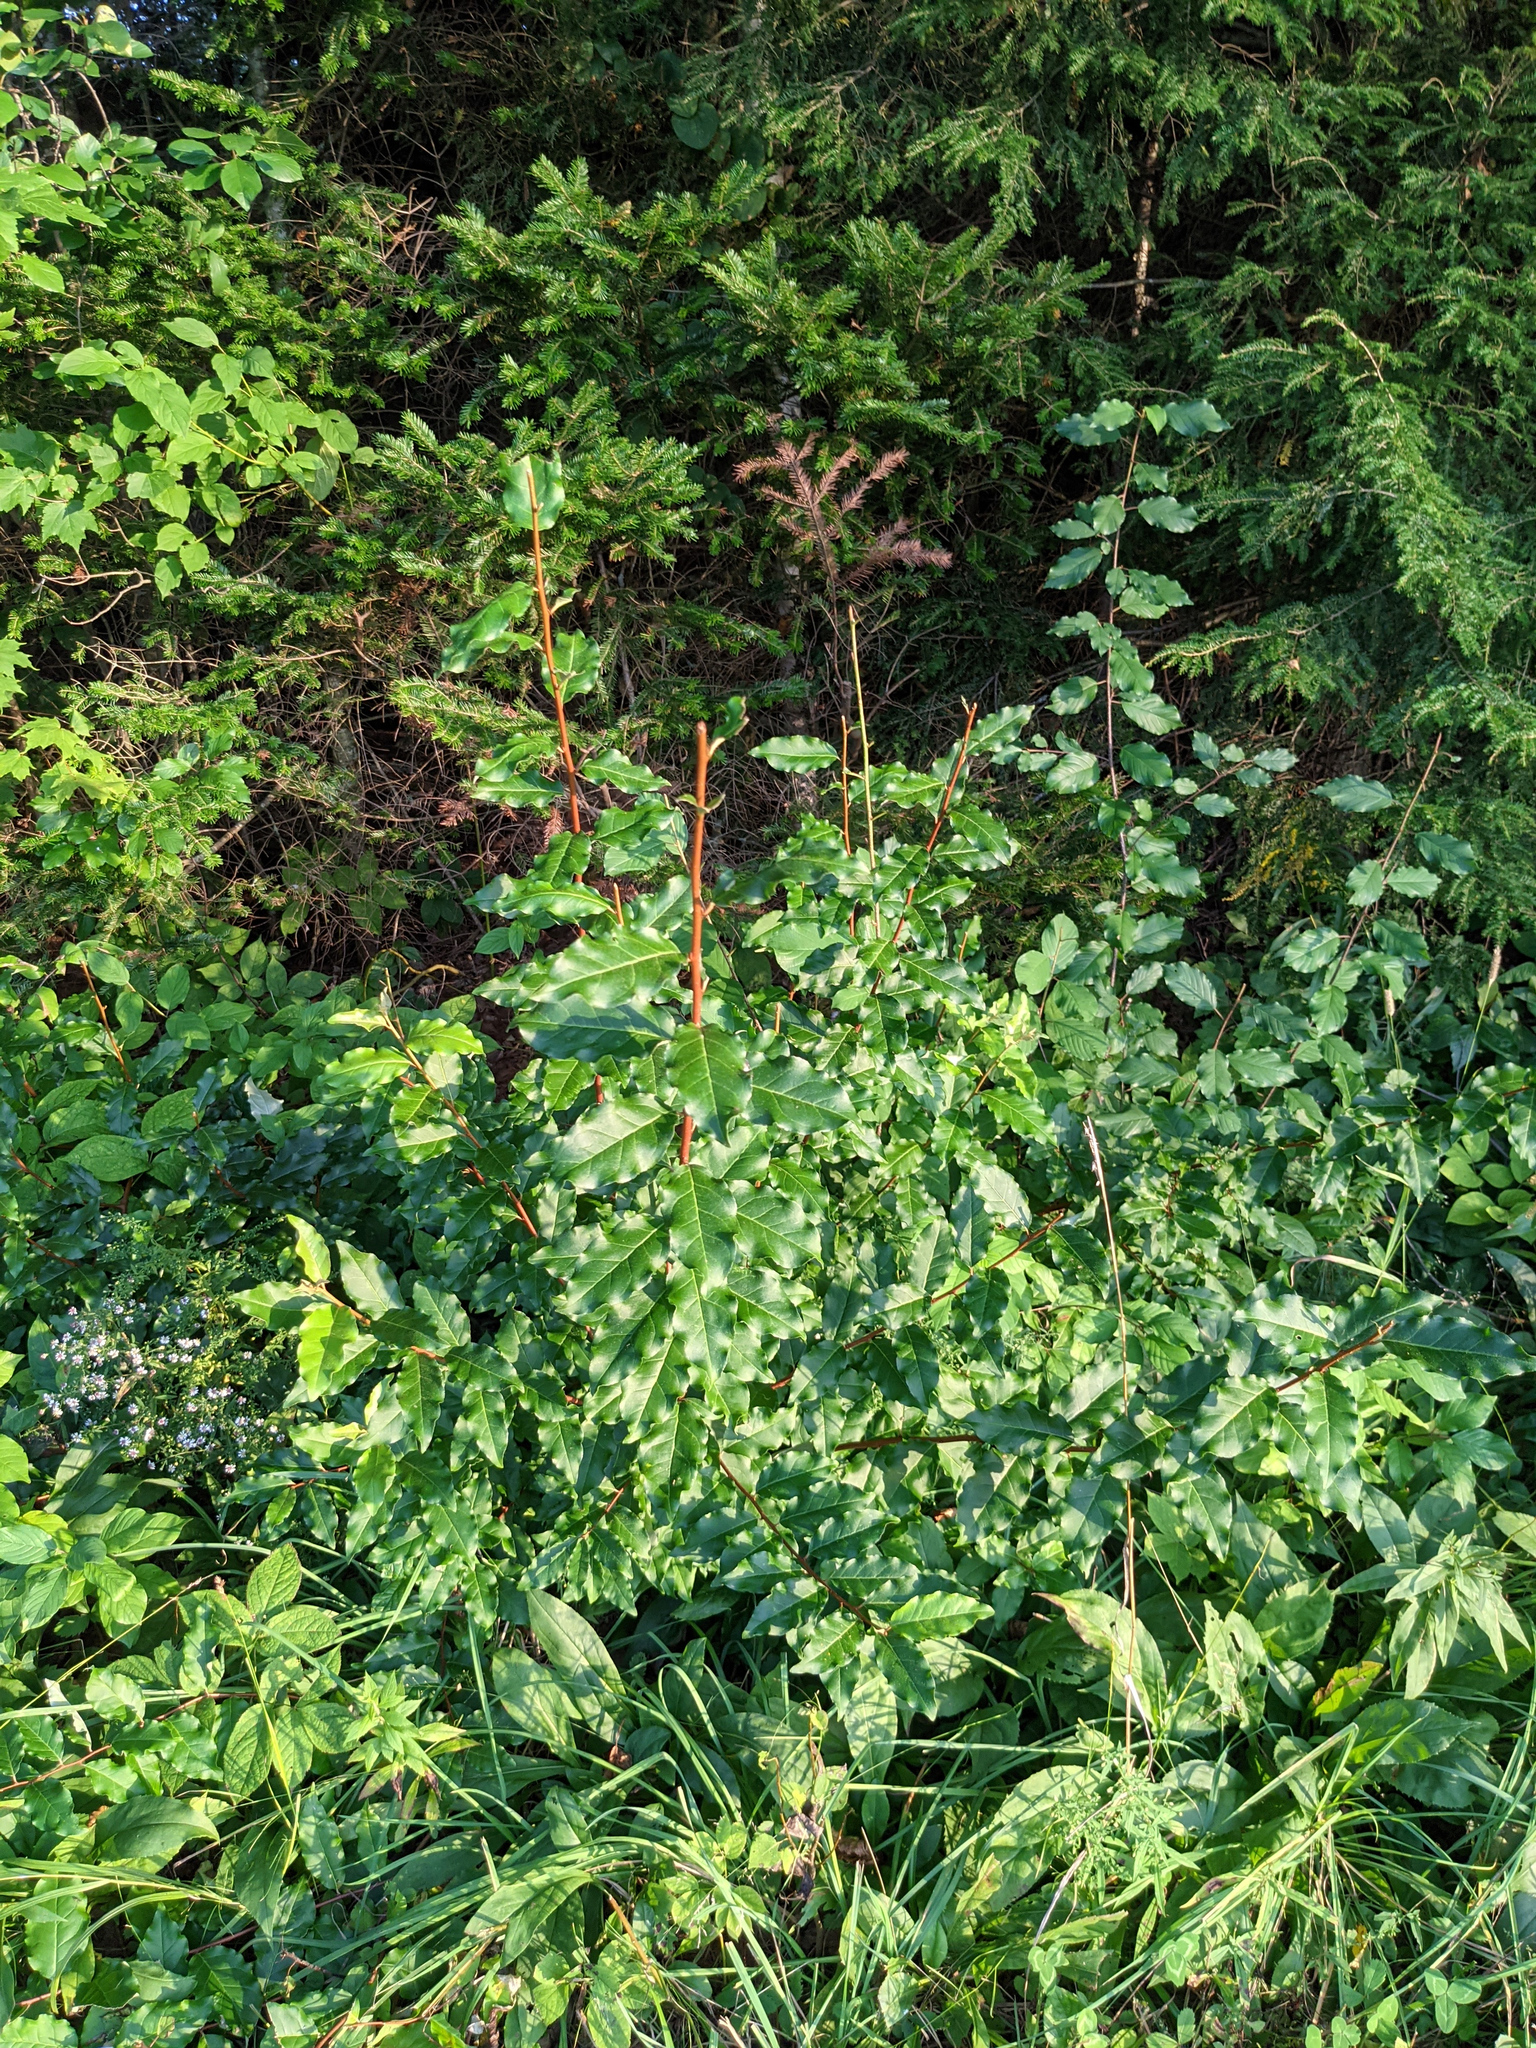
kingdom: Plantae
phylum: Tracheophyta
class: Magnoliopsida
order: Rosales
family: Elaeagnaceae
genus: Elaeagnus
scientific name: Elaeagnus umbellata
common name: Autumn olive
